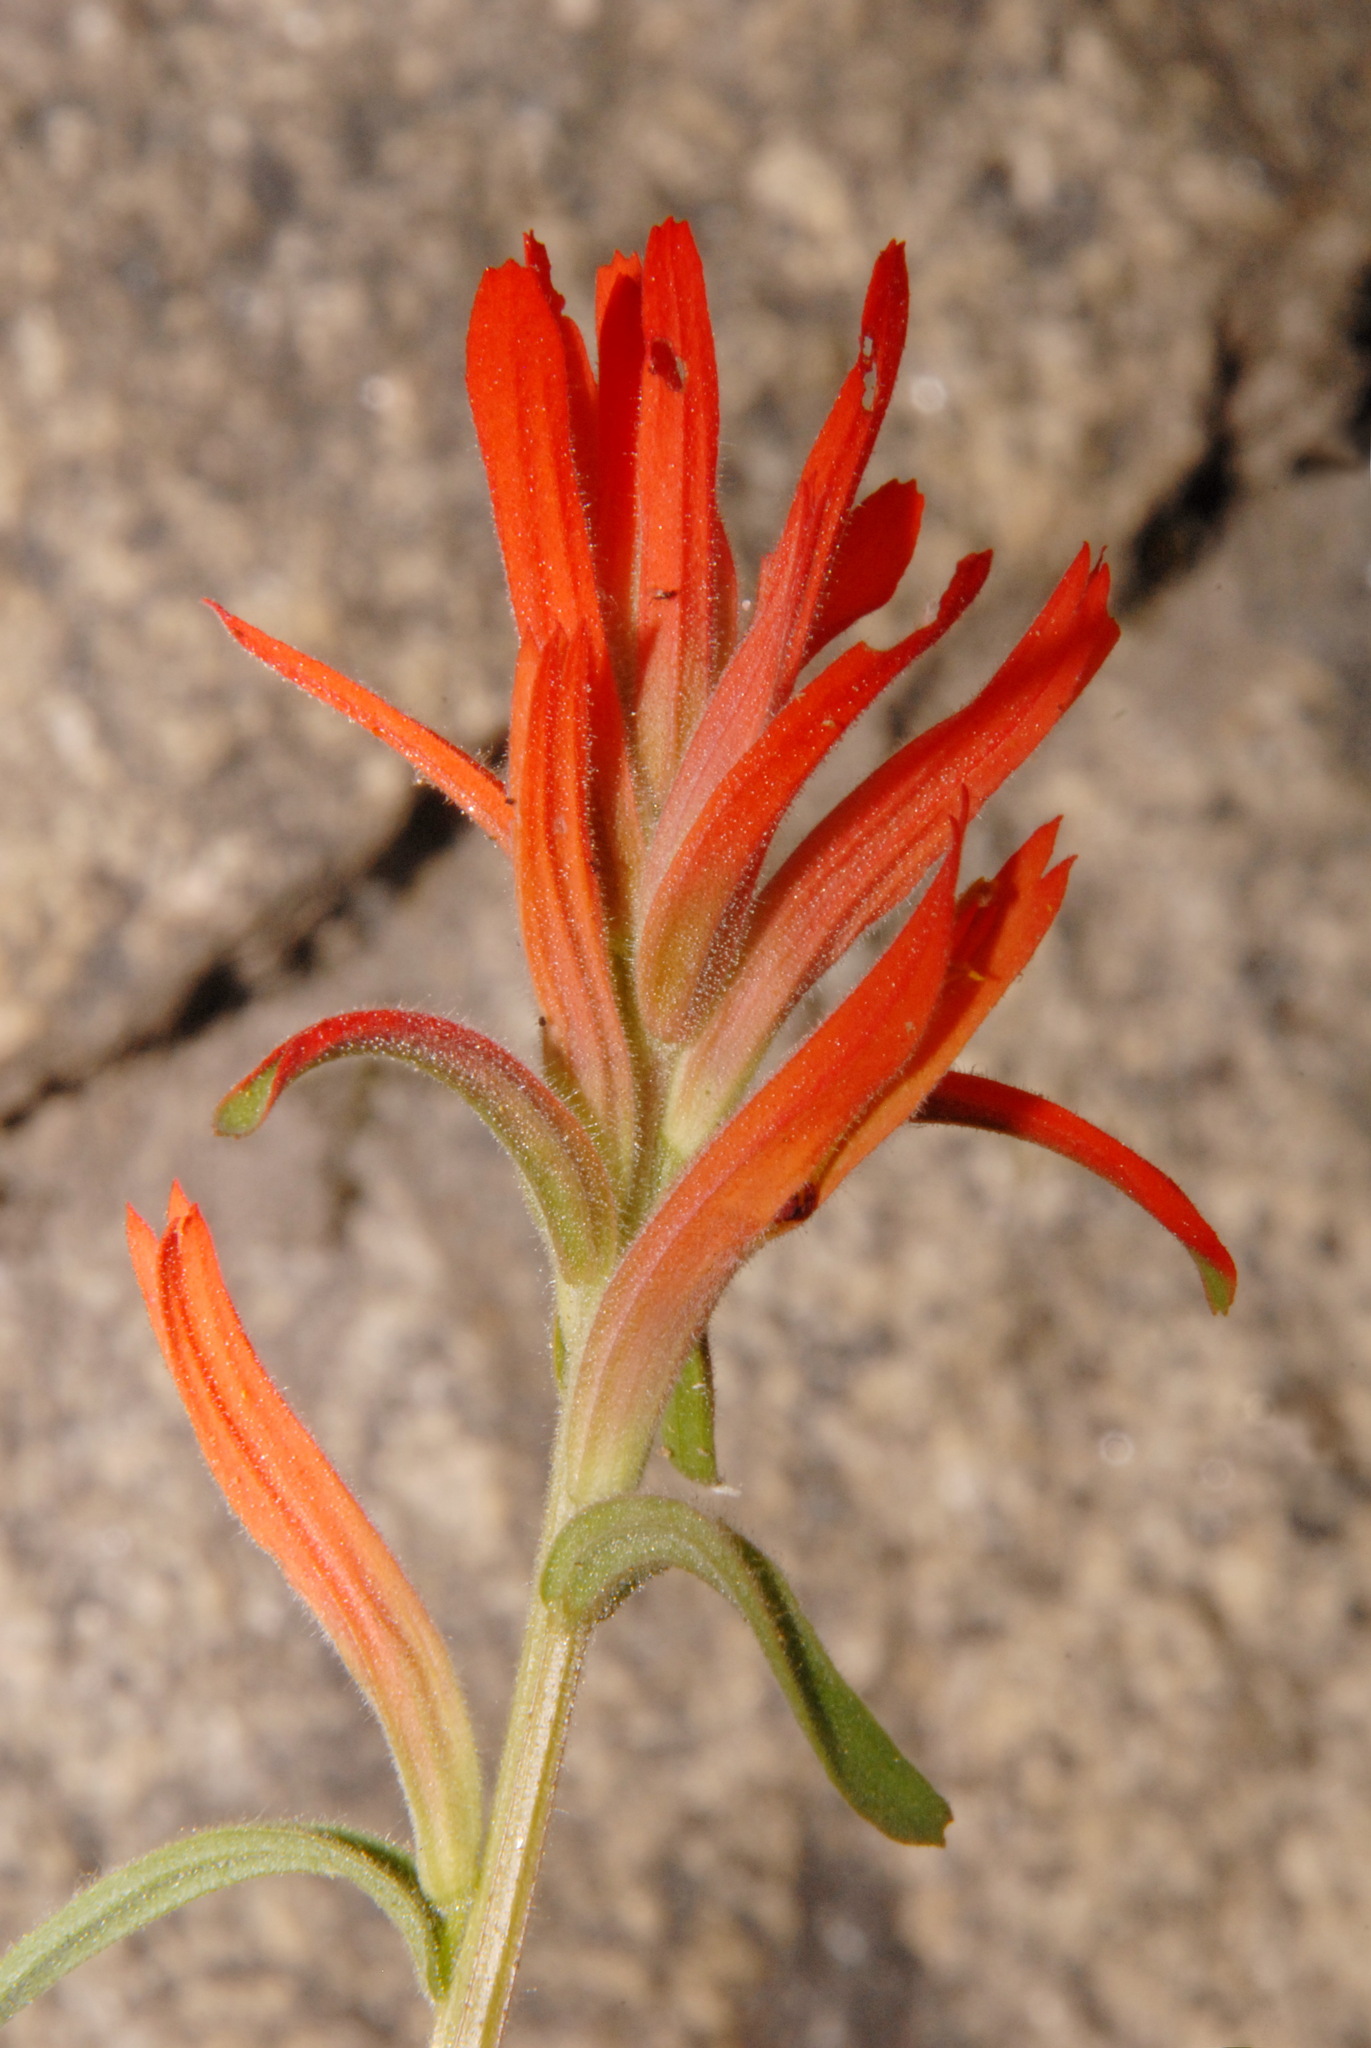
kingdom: Plantae
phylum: Tracheophyta
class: Magnoliopsida
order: Lamiales
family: Orobanchaceae
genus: Castilleja
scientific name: Castilleja disticha
